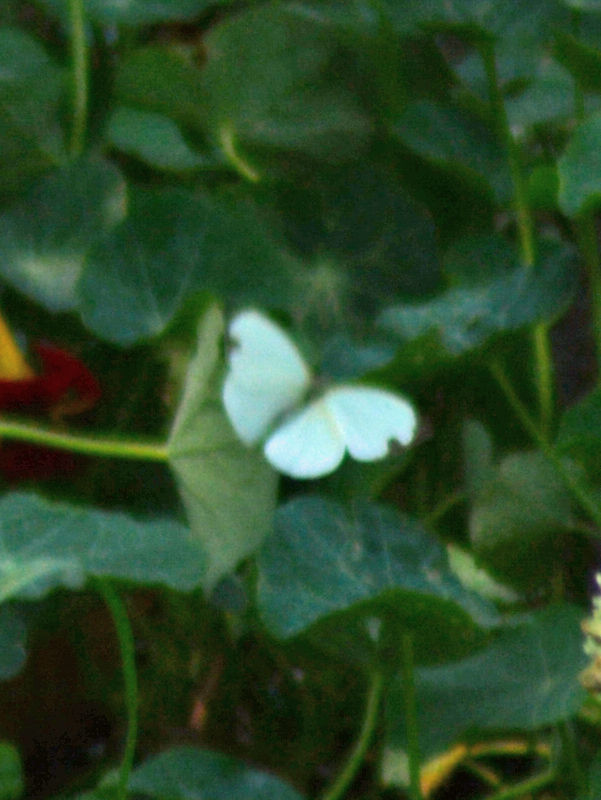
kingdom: Animalia
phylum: Arthropoda
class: Insecta
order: Lepidoptera
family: Pieridae
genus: Leptophobia
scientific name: Leptophobia aripa
